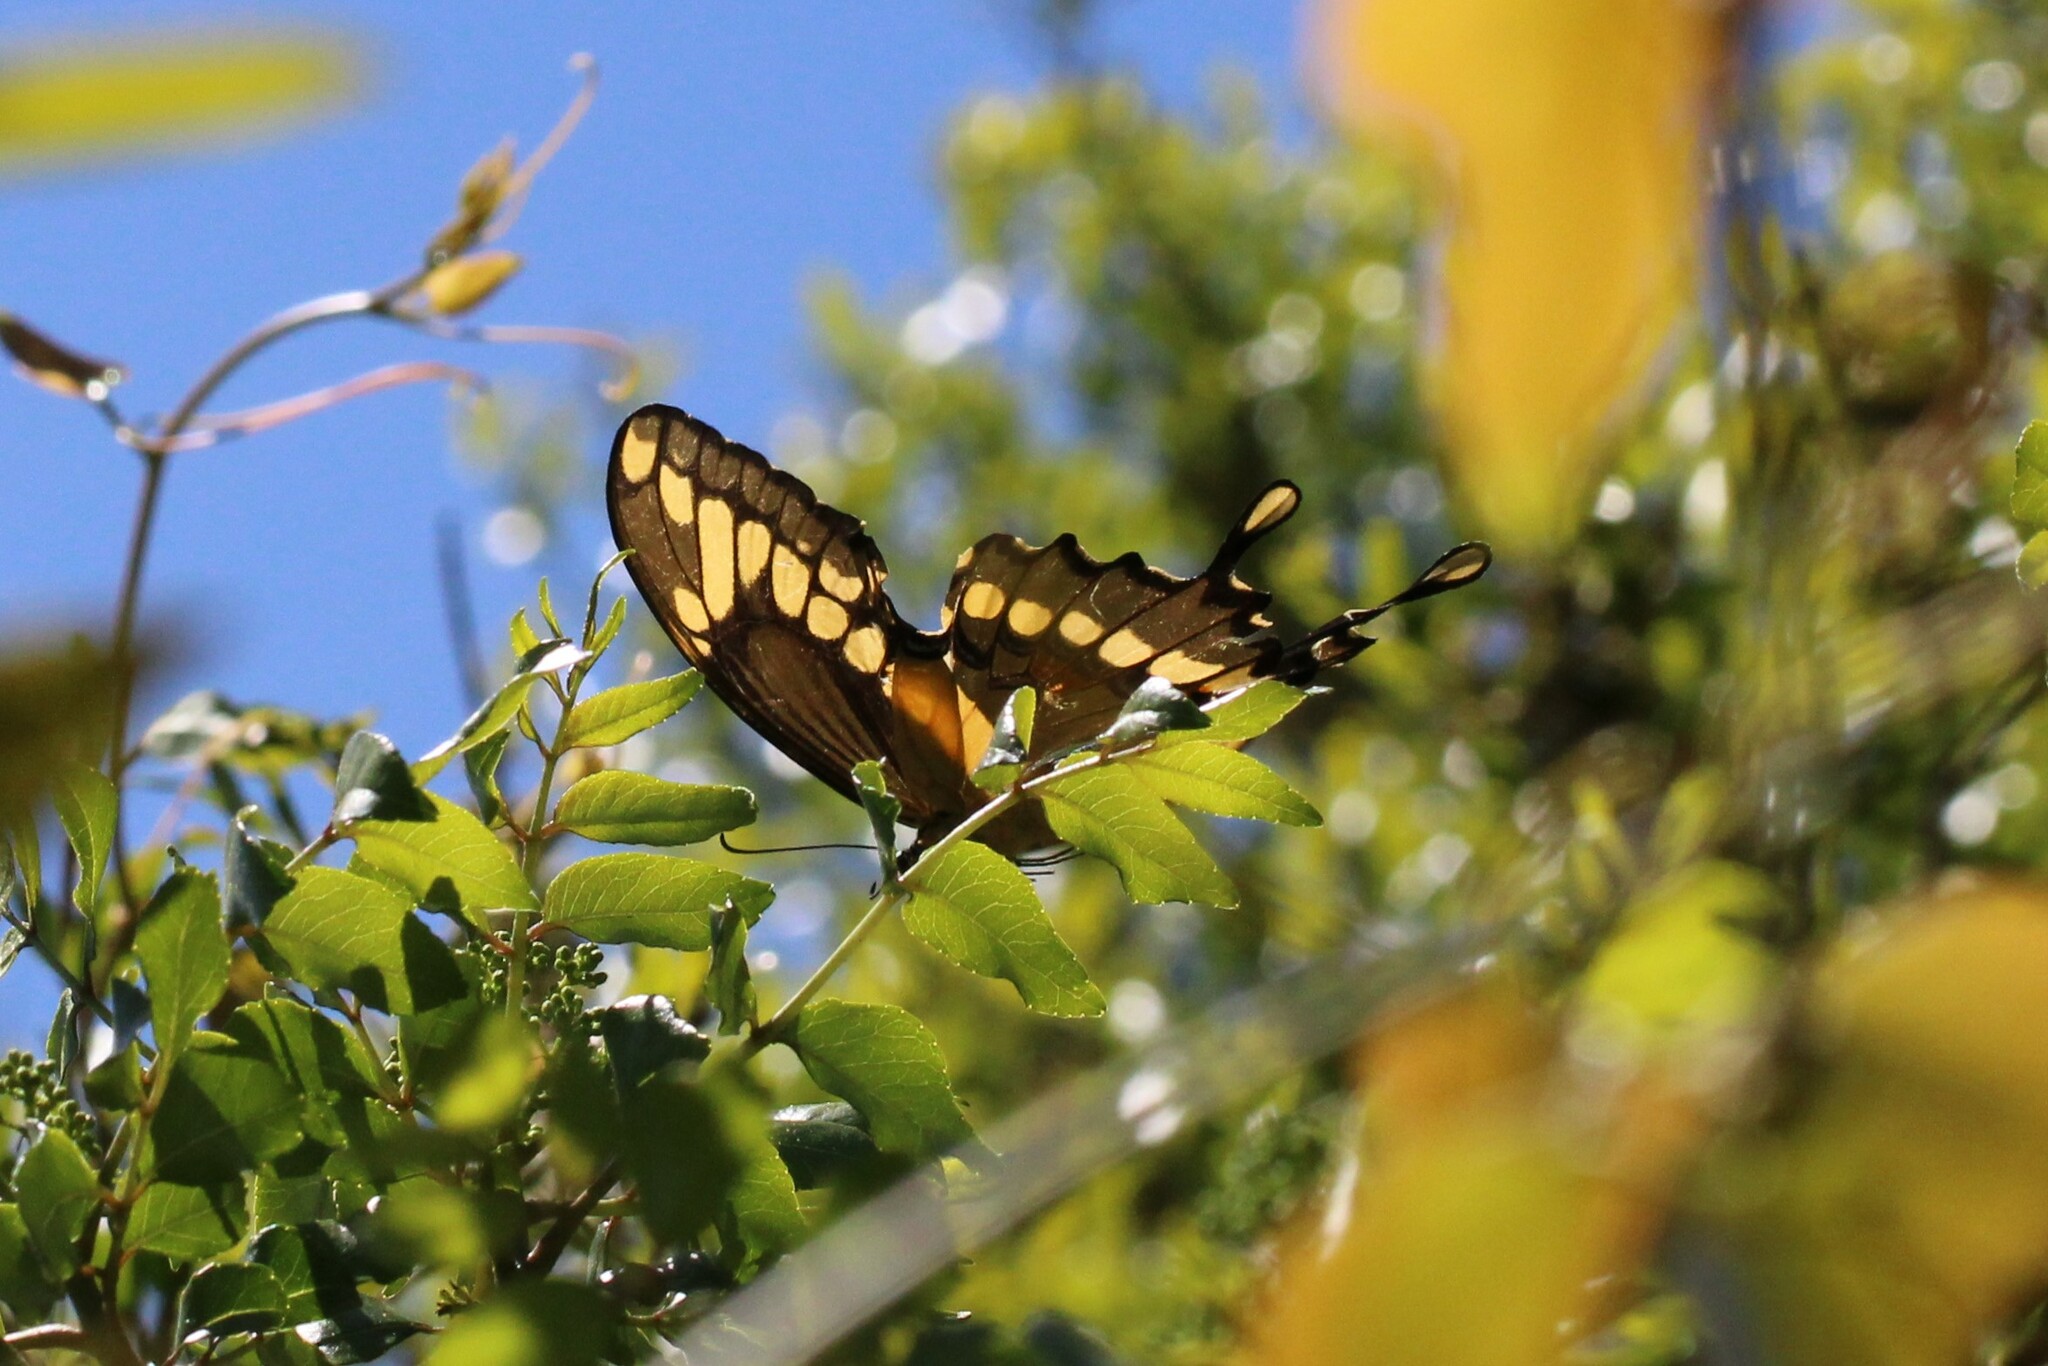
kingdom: Animalia
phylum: Arthropoda
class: Insecta
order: Lepidoptera
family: Papilionidae
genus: Papilio
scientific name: Papilio cresphontes
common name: Giant swallowtail
